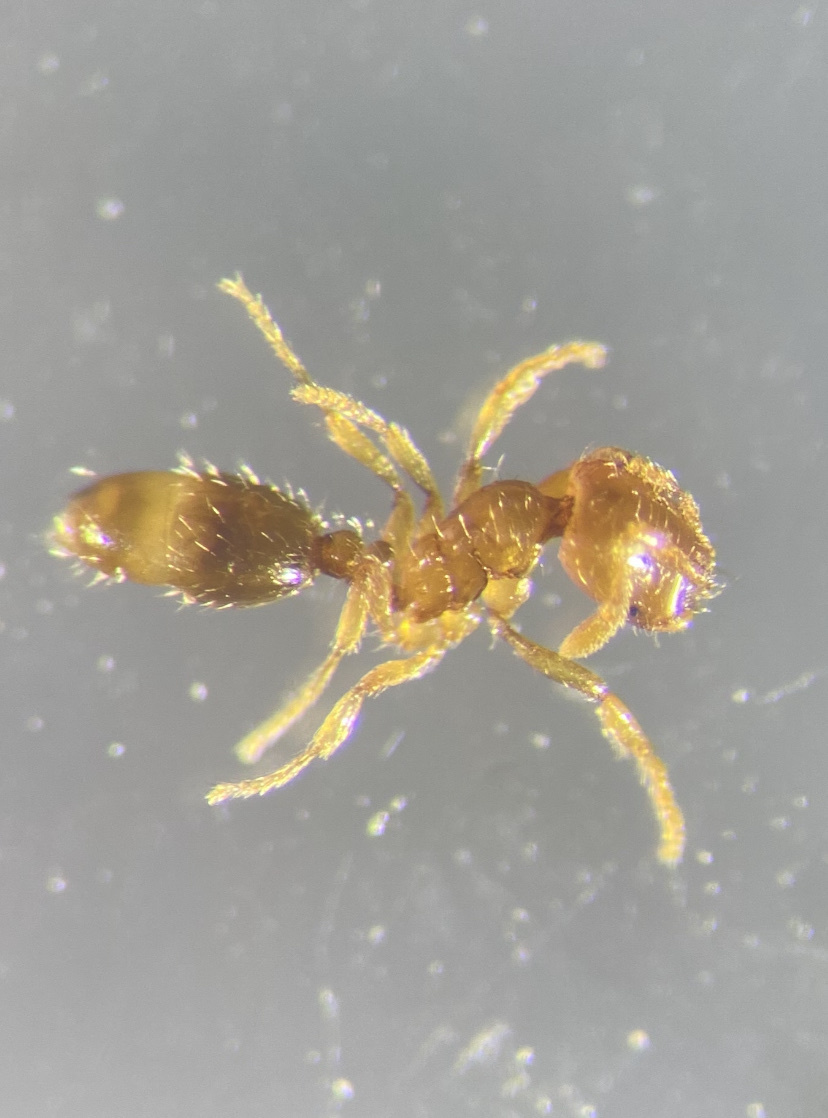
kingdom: Animalia
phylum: Arthropoda
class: Insecta
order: Hymenoptera
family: Formicidae
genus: Solenopsis
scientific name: Solenopsis molesta
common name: Thief ant
